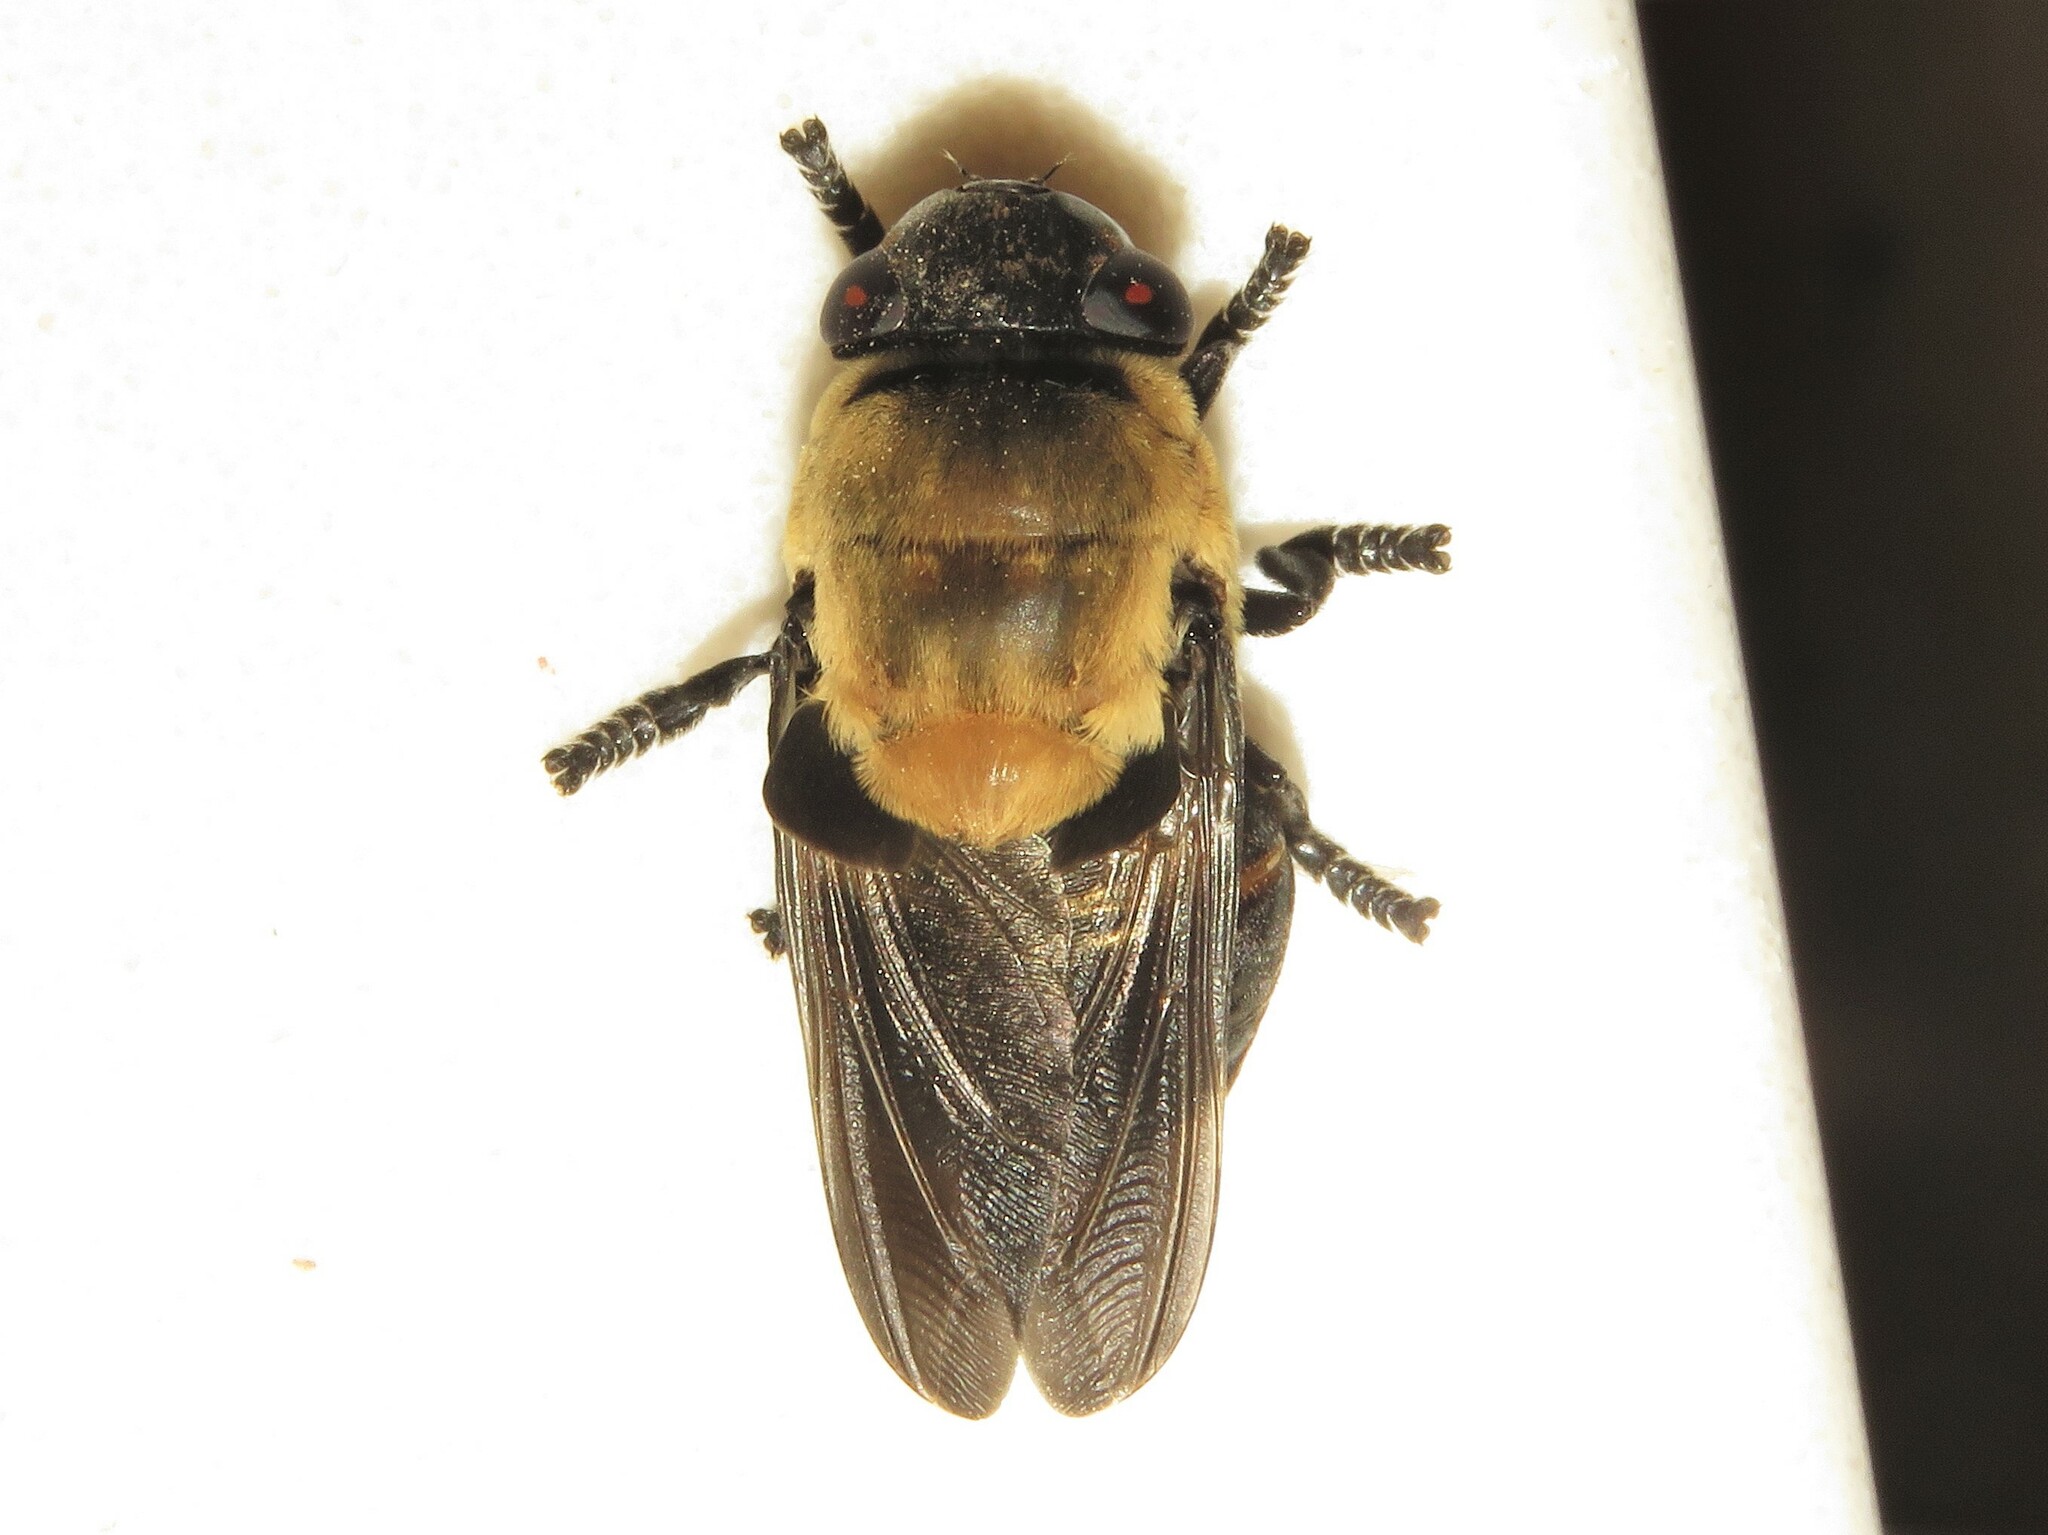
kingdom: Animalia
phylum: Arthropoda
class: Insecta
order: Diptera
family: Oestridae
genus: Cuterebra
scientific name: Cuterebra abdominalis
